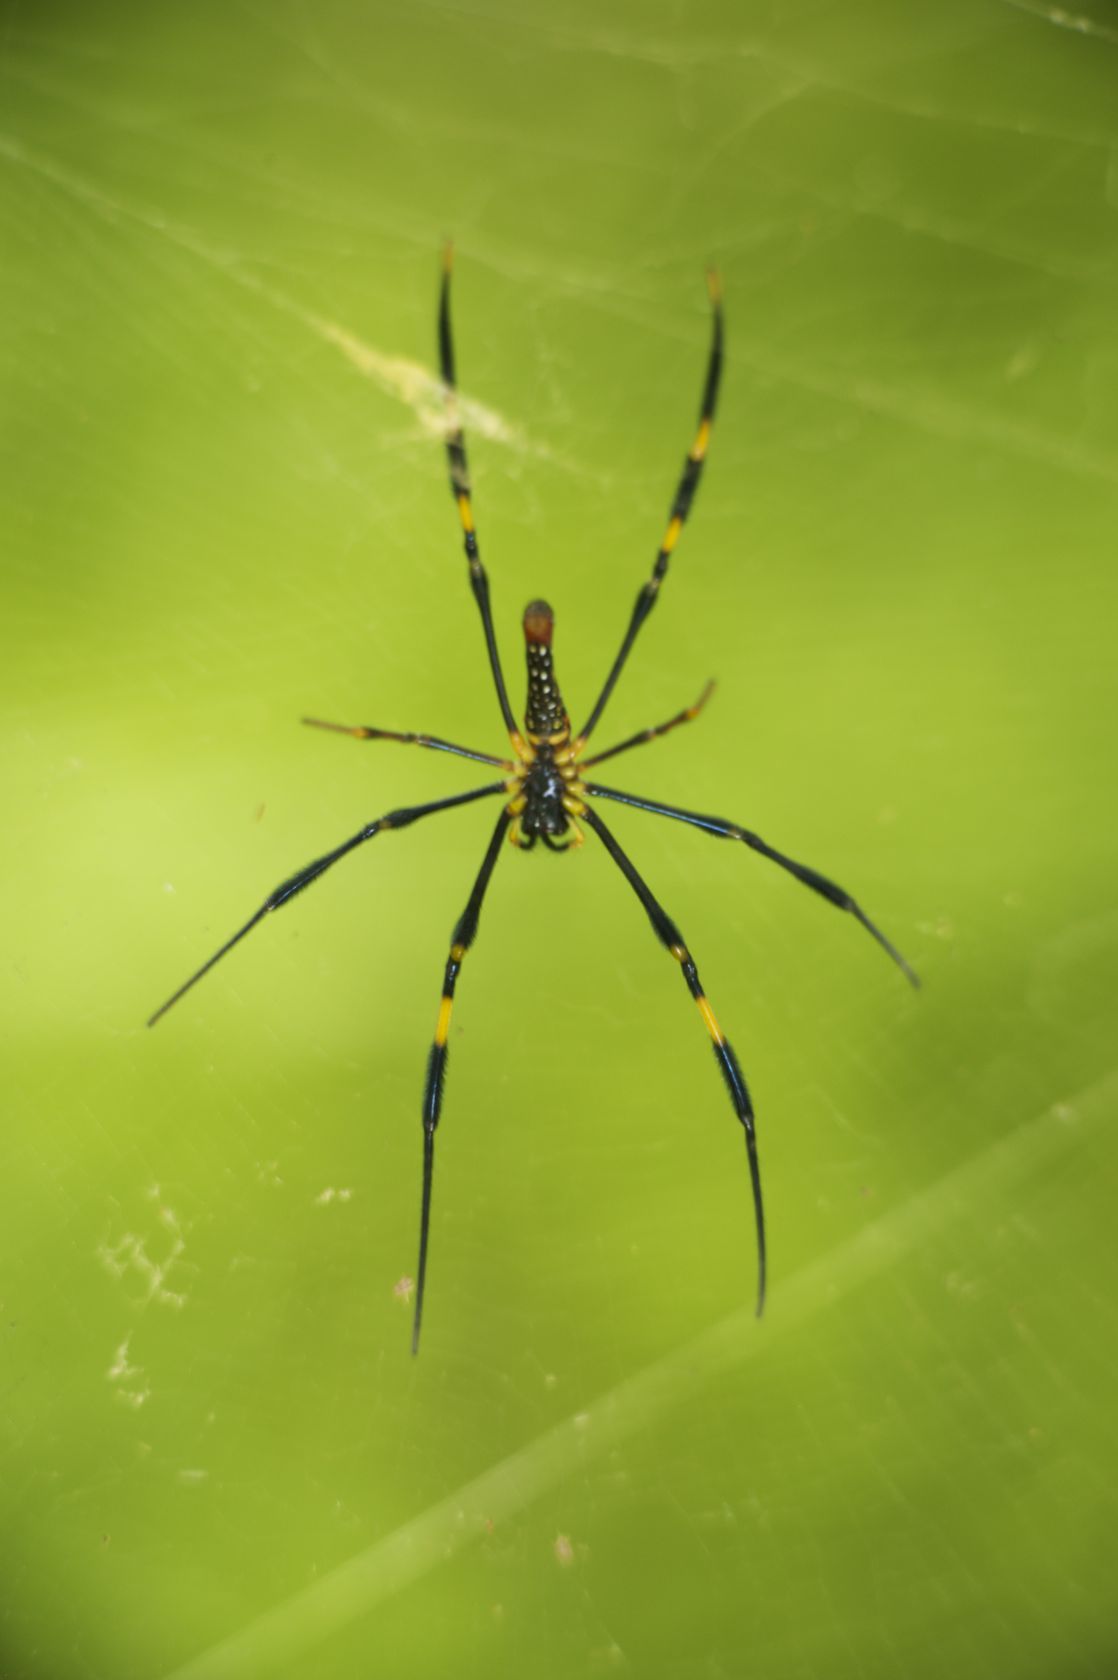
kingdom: Animalia
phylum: Arthropoda
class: Arachnida
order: Araneae
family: Araneidae
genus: Nephila
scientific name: Nephila pilipes
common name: Giant golden orb weaver
